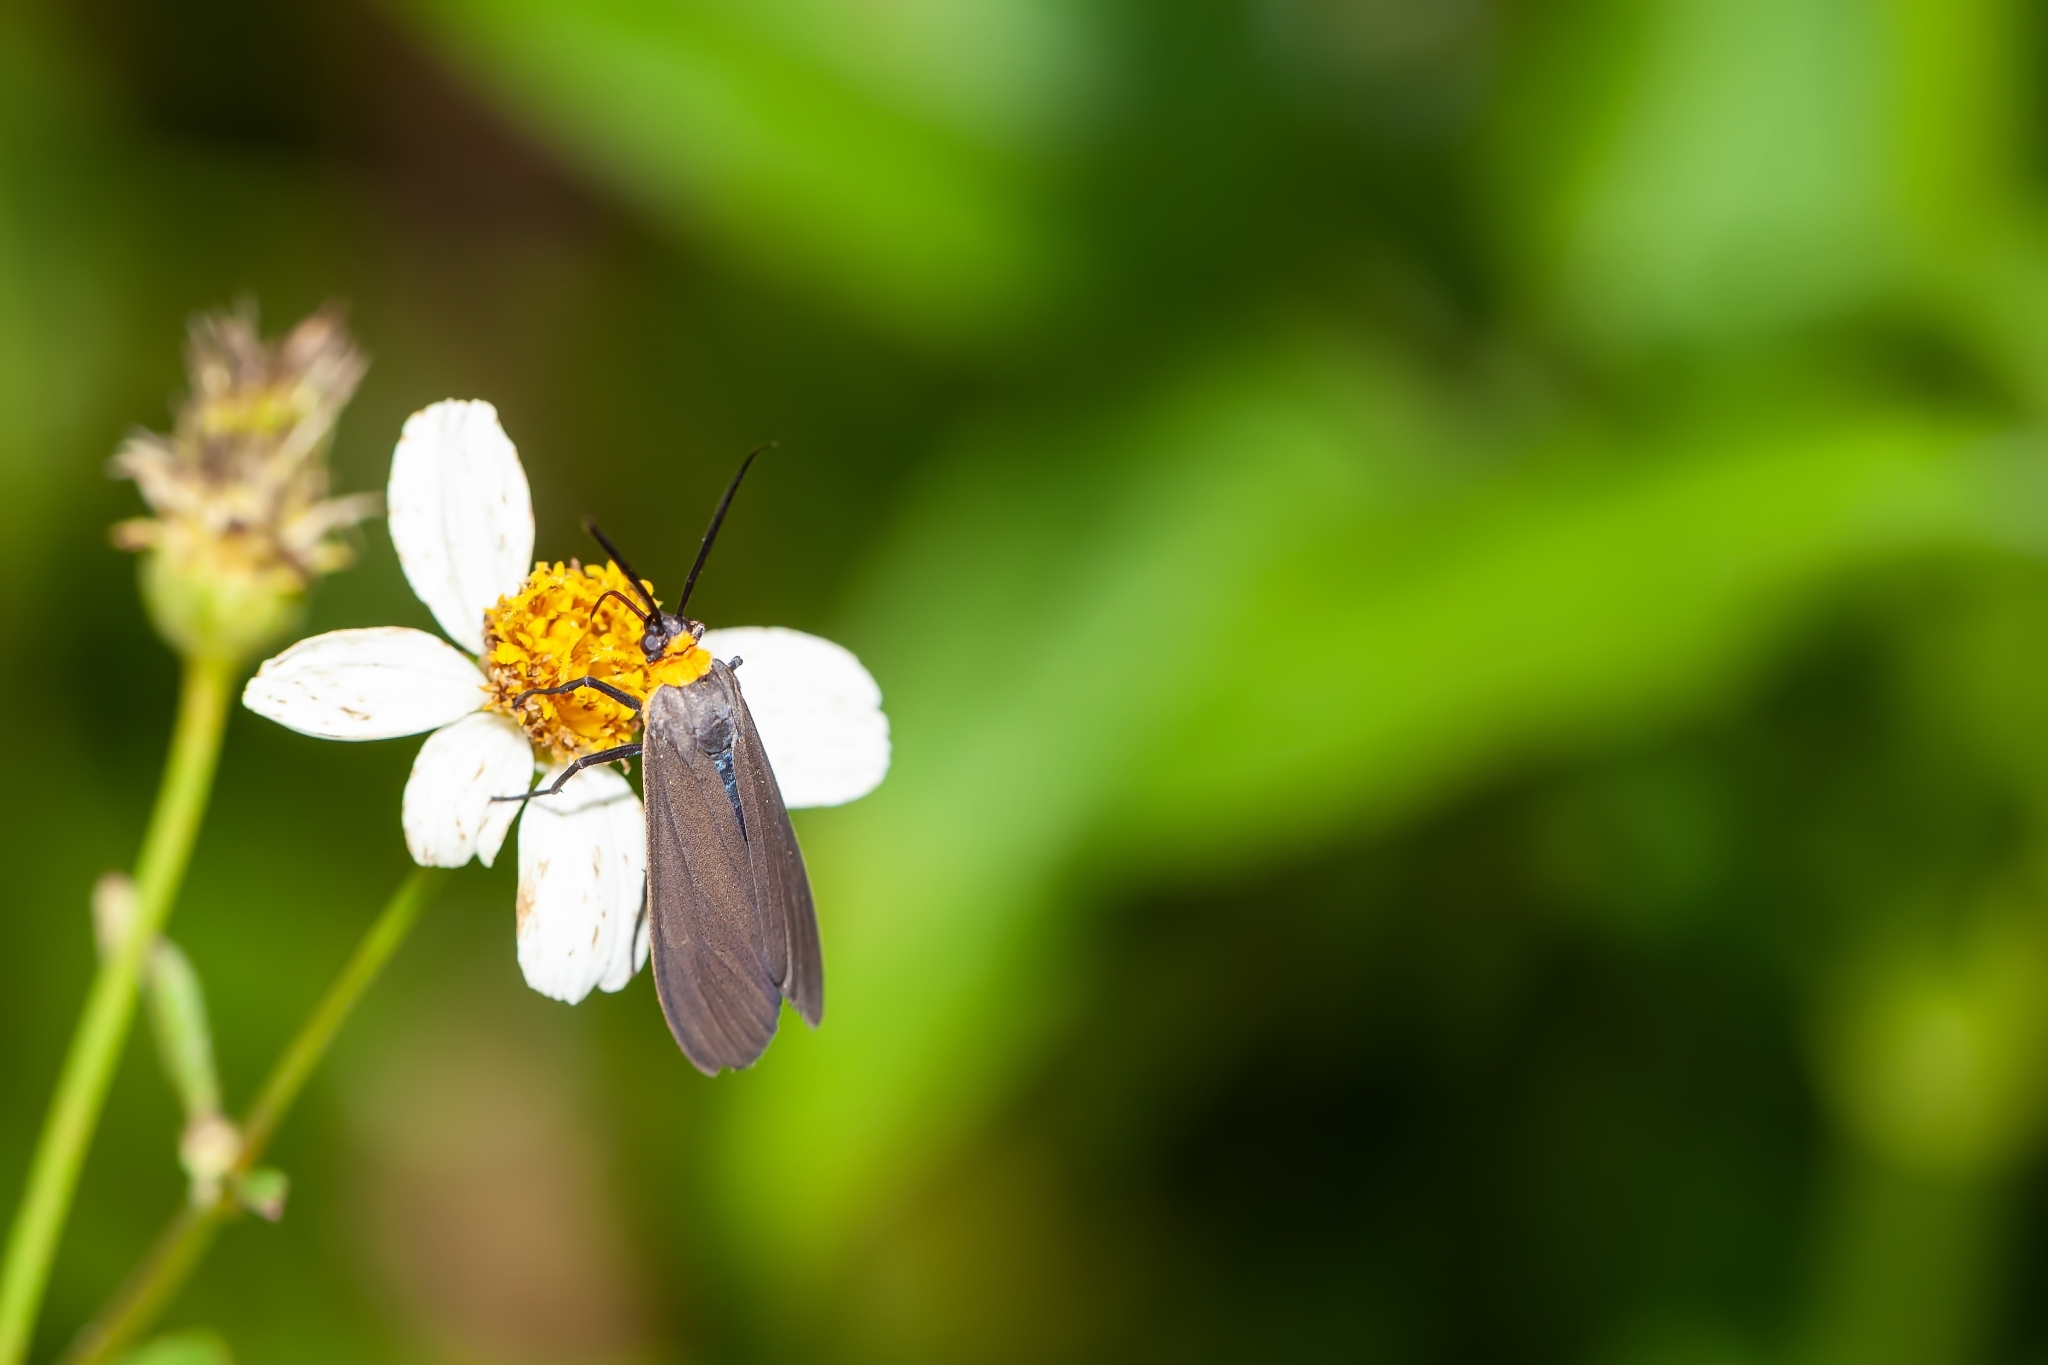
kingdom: Animalia
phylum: Arthropoda
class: Insecta
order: Lepidoptera
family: Erebidae
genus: Cisseps
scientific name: Cisseps fulvicollis
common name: Yellow-collared scape moth
